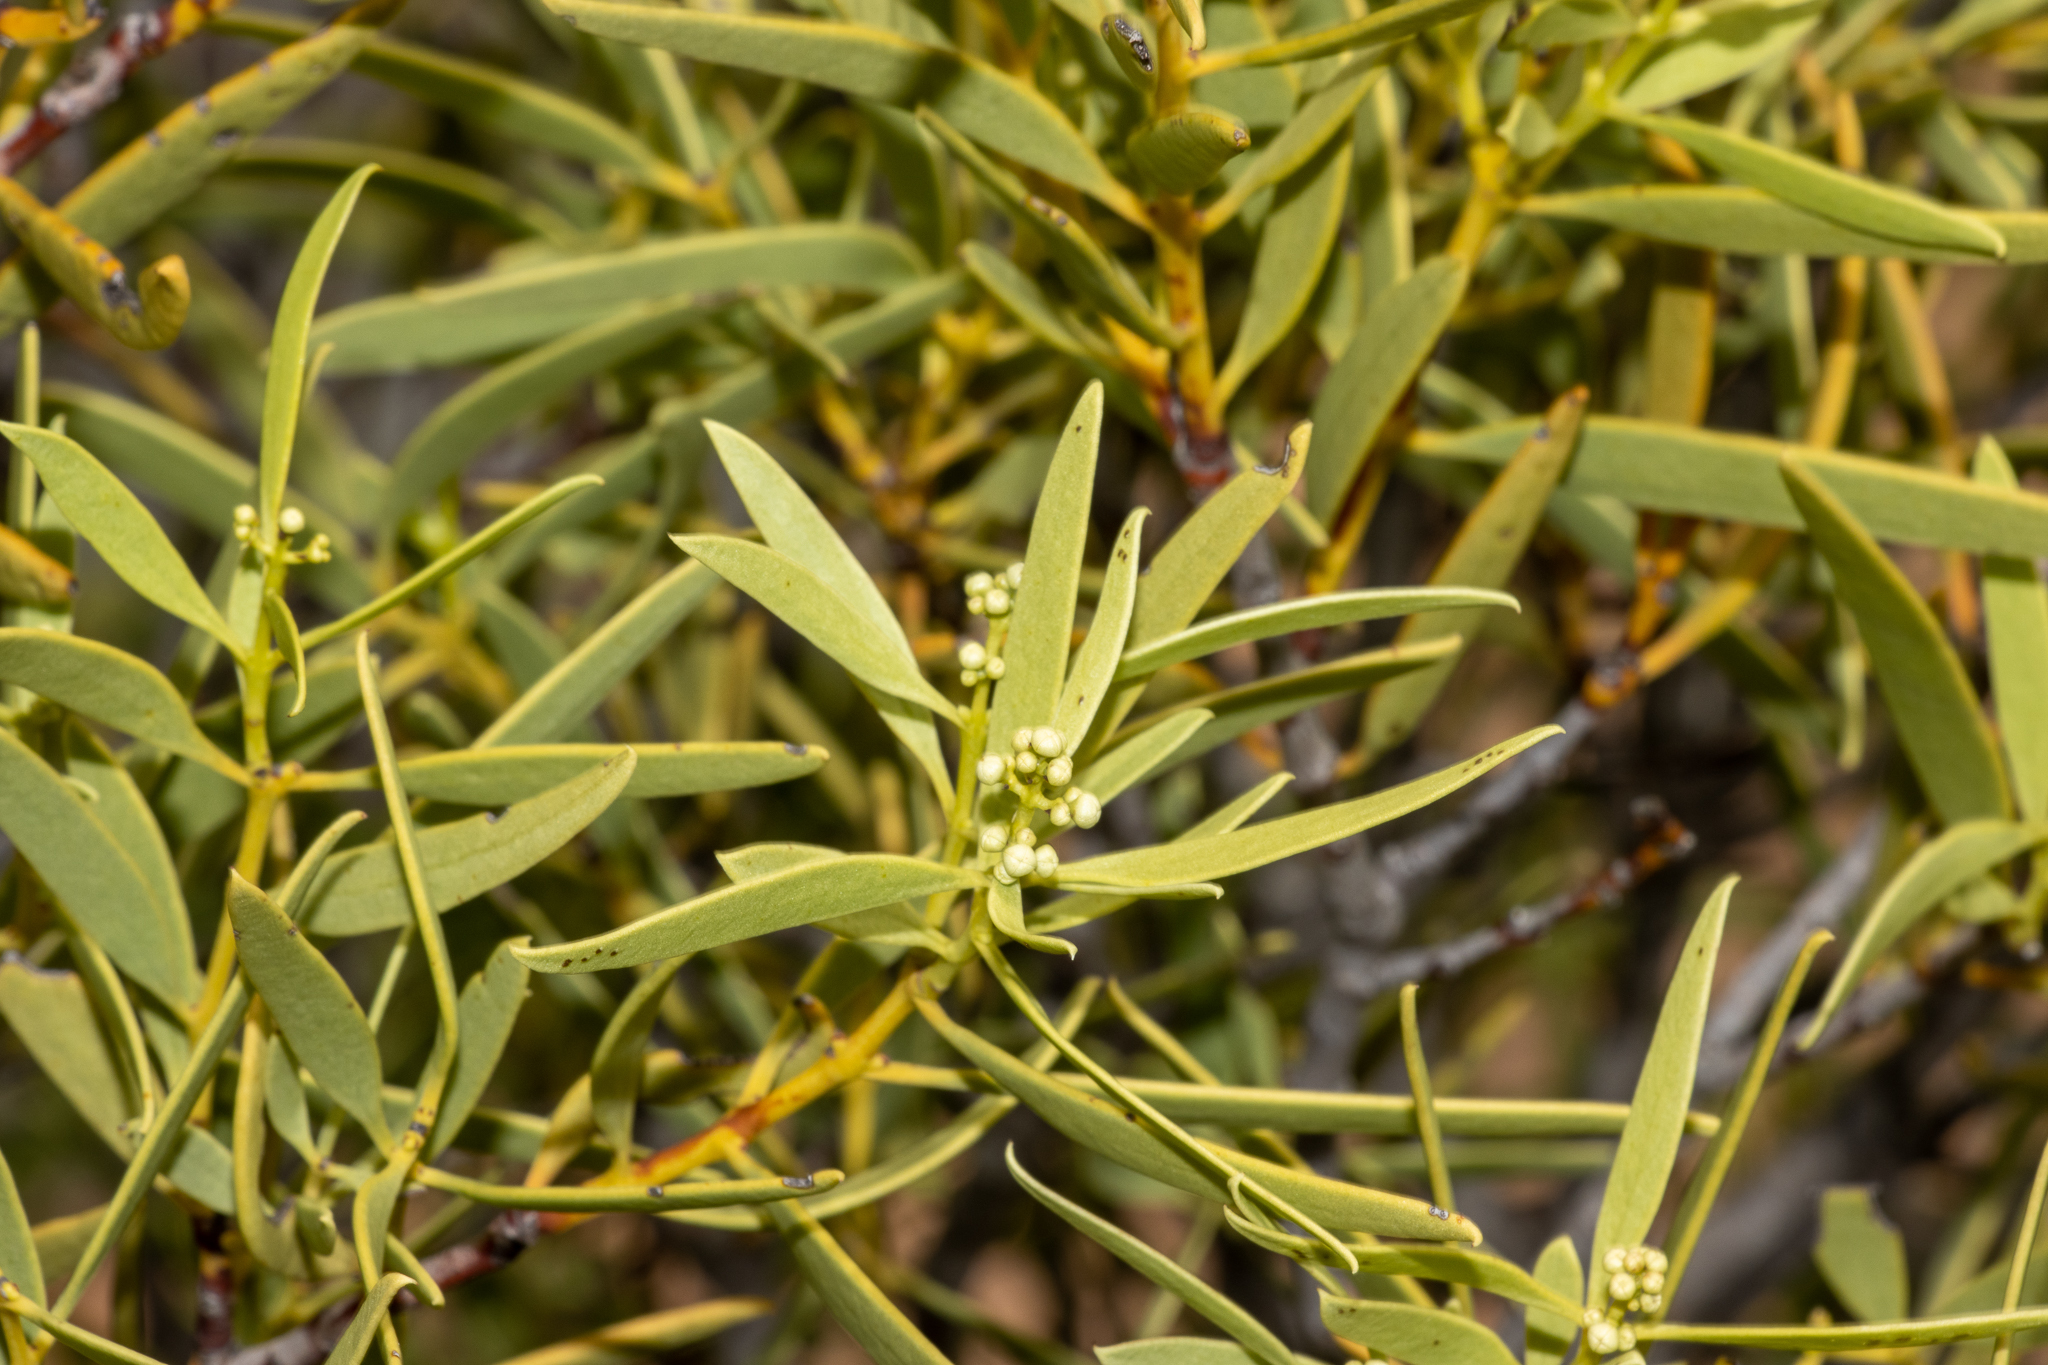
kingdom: Plantae
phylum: Tracheophyta
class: Magnoliopsida
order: Santalales
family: Santalaceae
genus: Santalum
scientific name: Santalum acuminatum
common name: Sweet quandong
